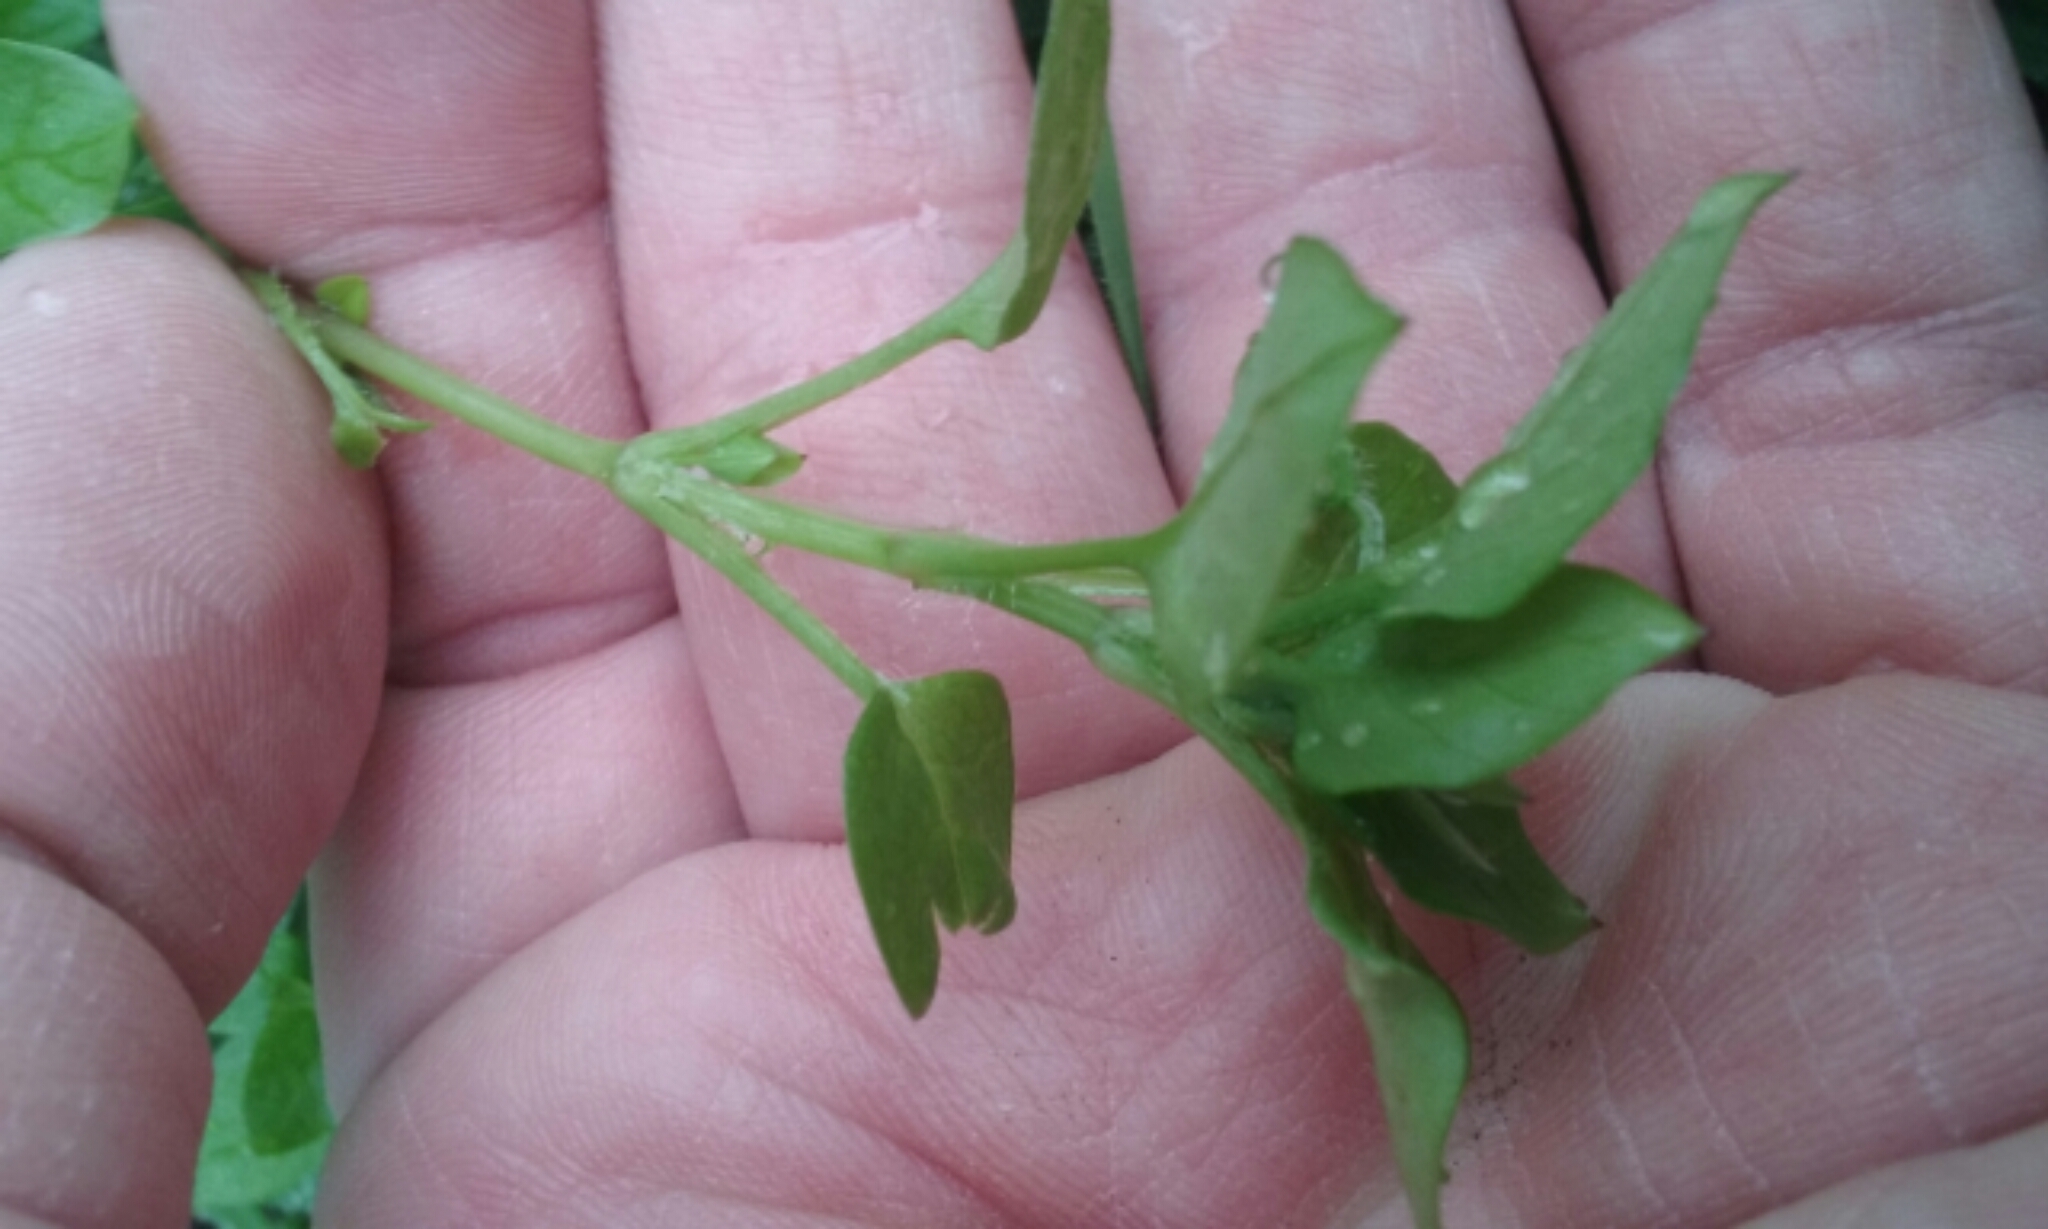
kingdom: Plantae
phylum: Tracheophyta
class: Magnoliopsida
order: Caryophyllales
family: Caryophyllaceae
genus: Stellaria
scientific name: Stellaria media
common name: Common chickweed
